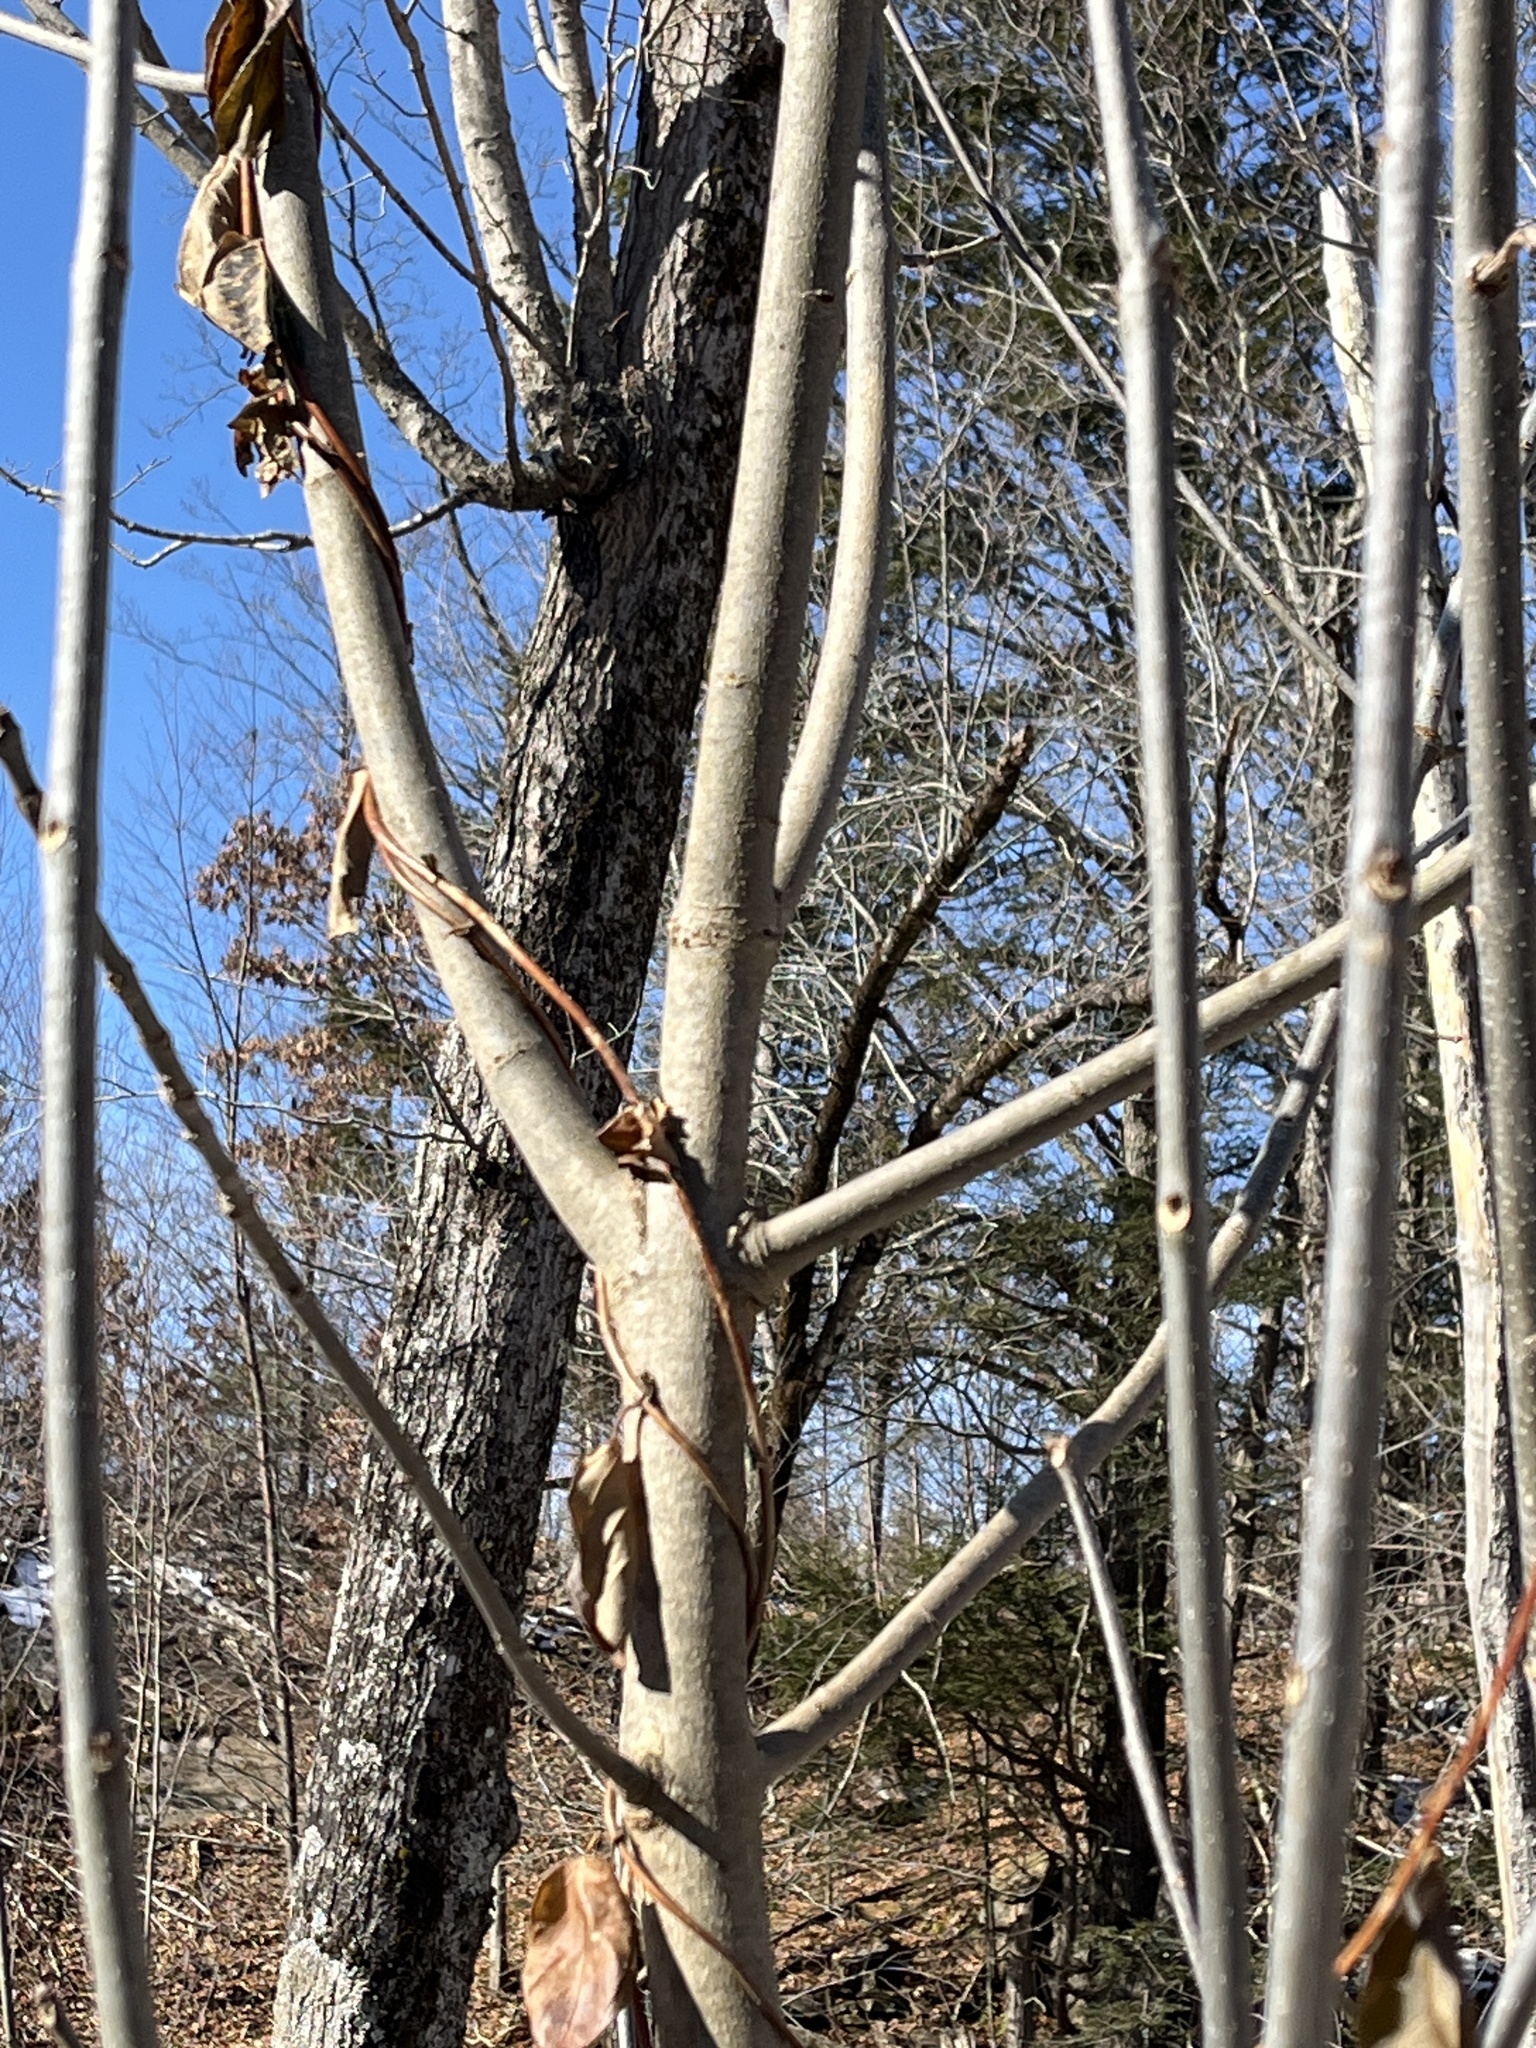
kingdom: Plantae
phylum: Tracheophyta
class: Magnoliopsida
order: Lamiales
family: Oleaceae
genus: Fraxinus
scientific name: Fraxinus americana
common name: White ash
